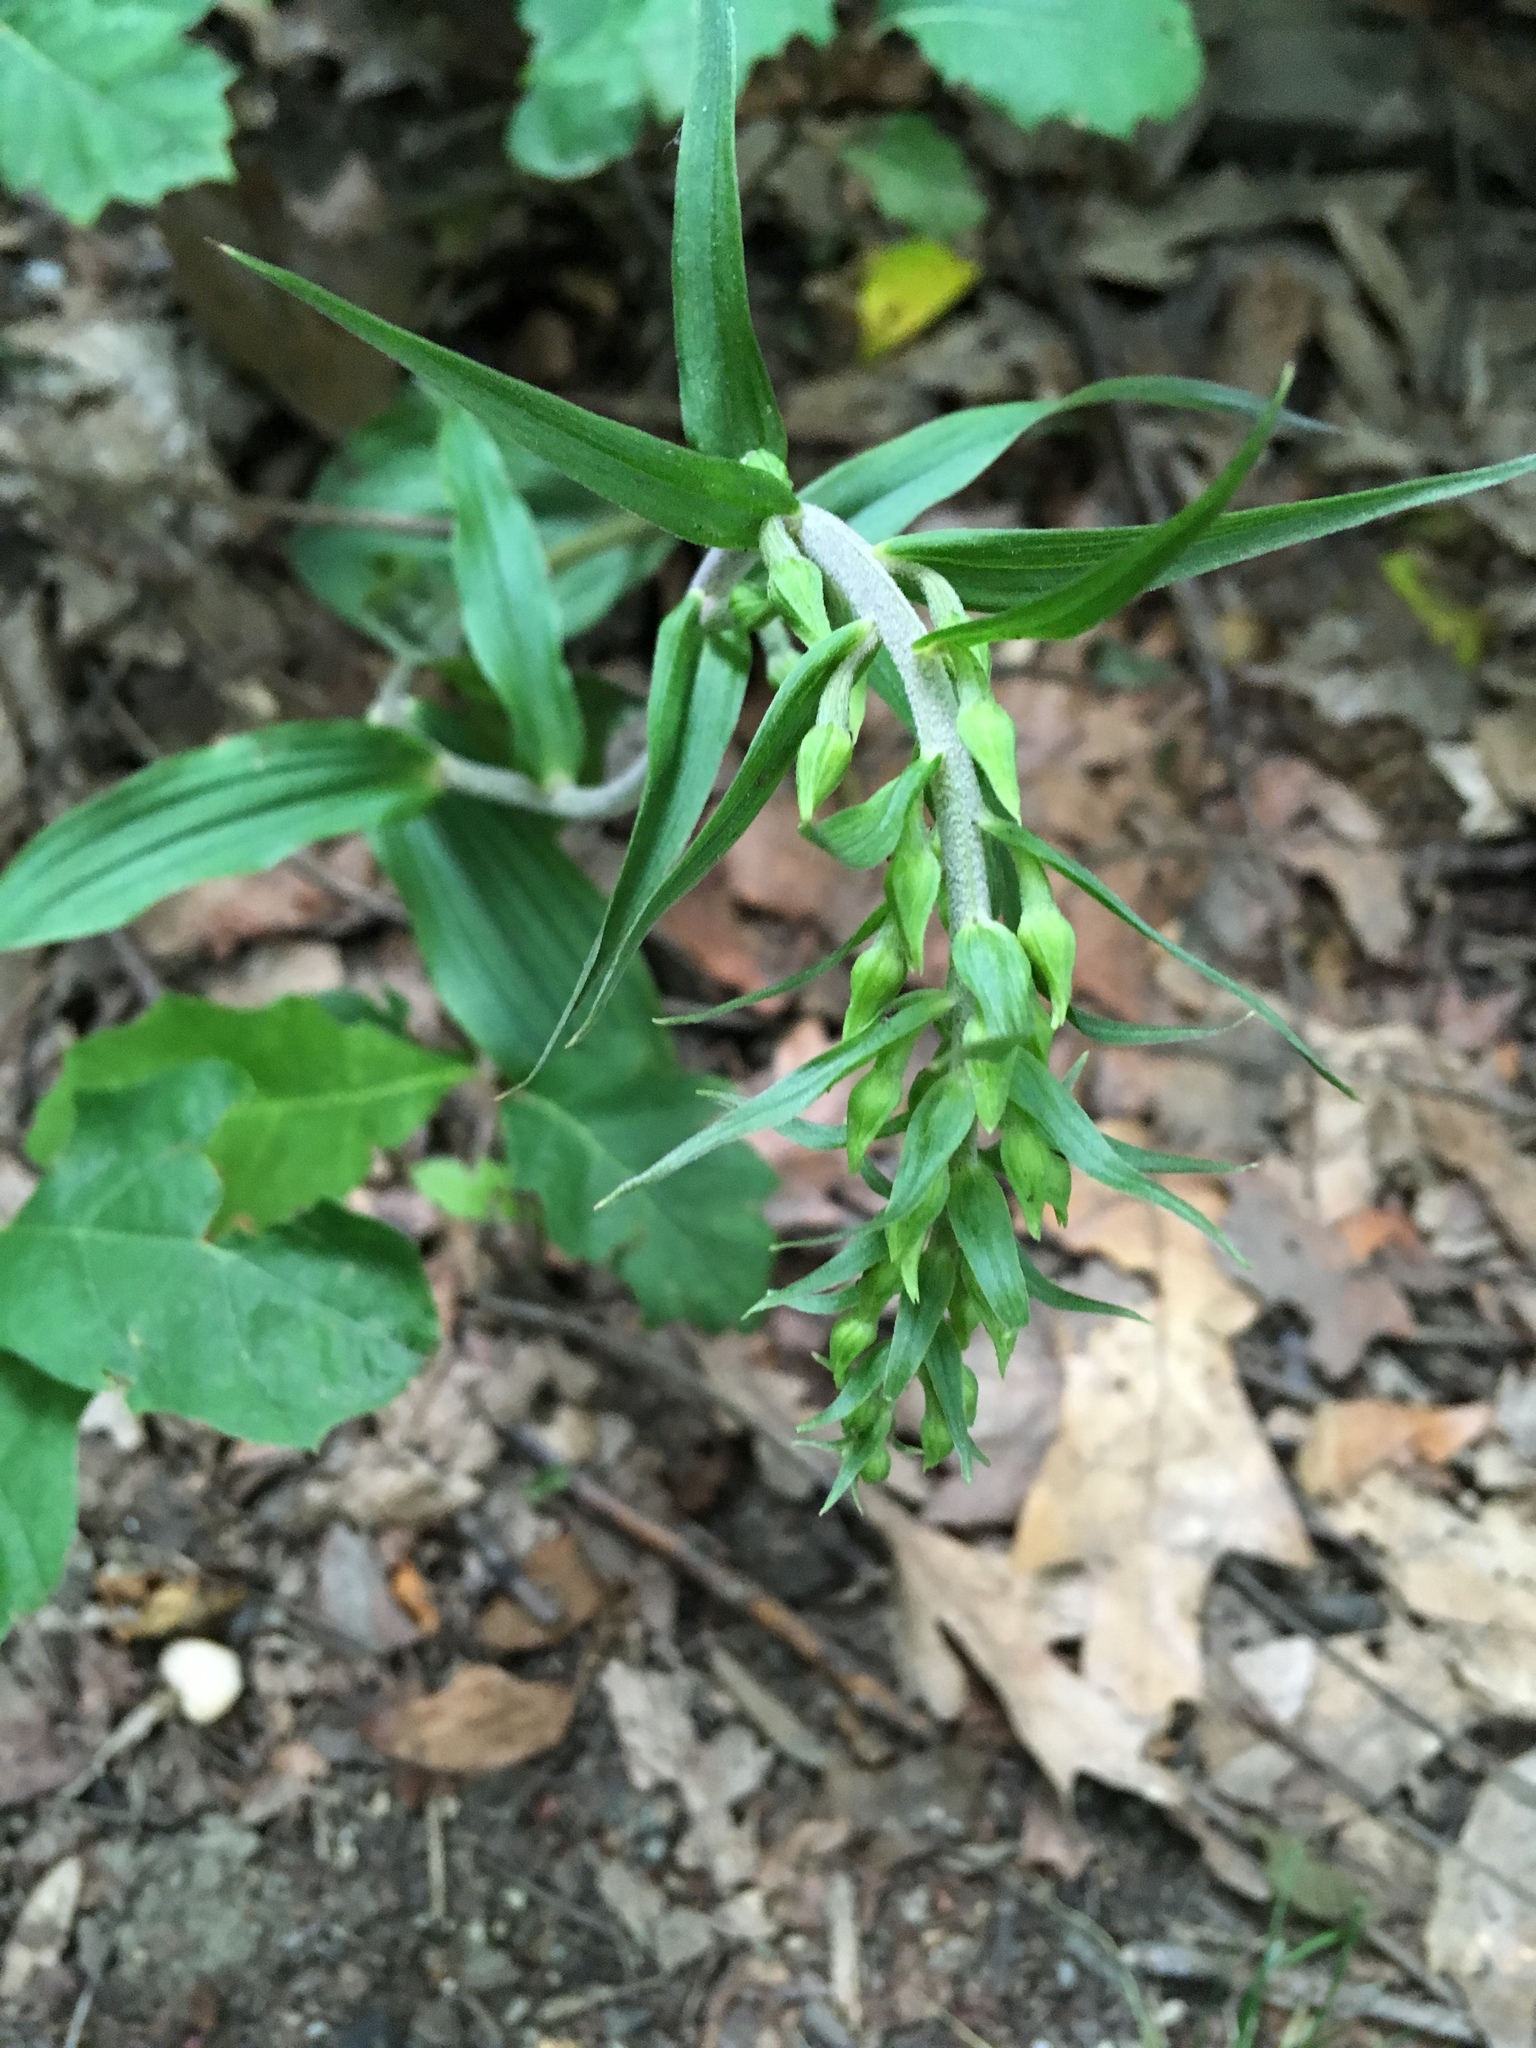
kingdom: Plantae
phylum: Tracheophyta
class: Liliopsida
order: Asparagales
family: Orchidaceae
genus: Epipactis
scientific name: Epipactis helleborine
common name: Broad-leaved helleborine
